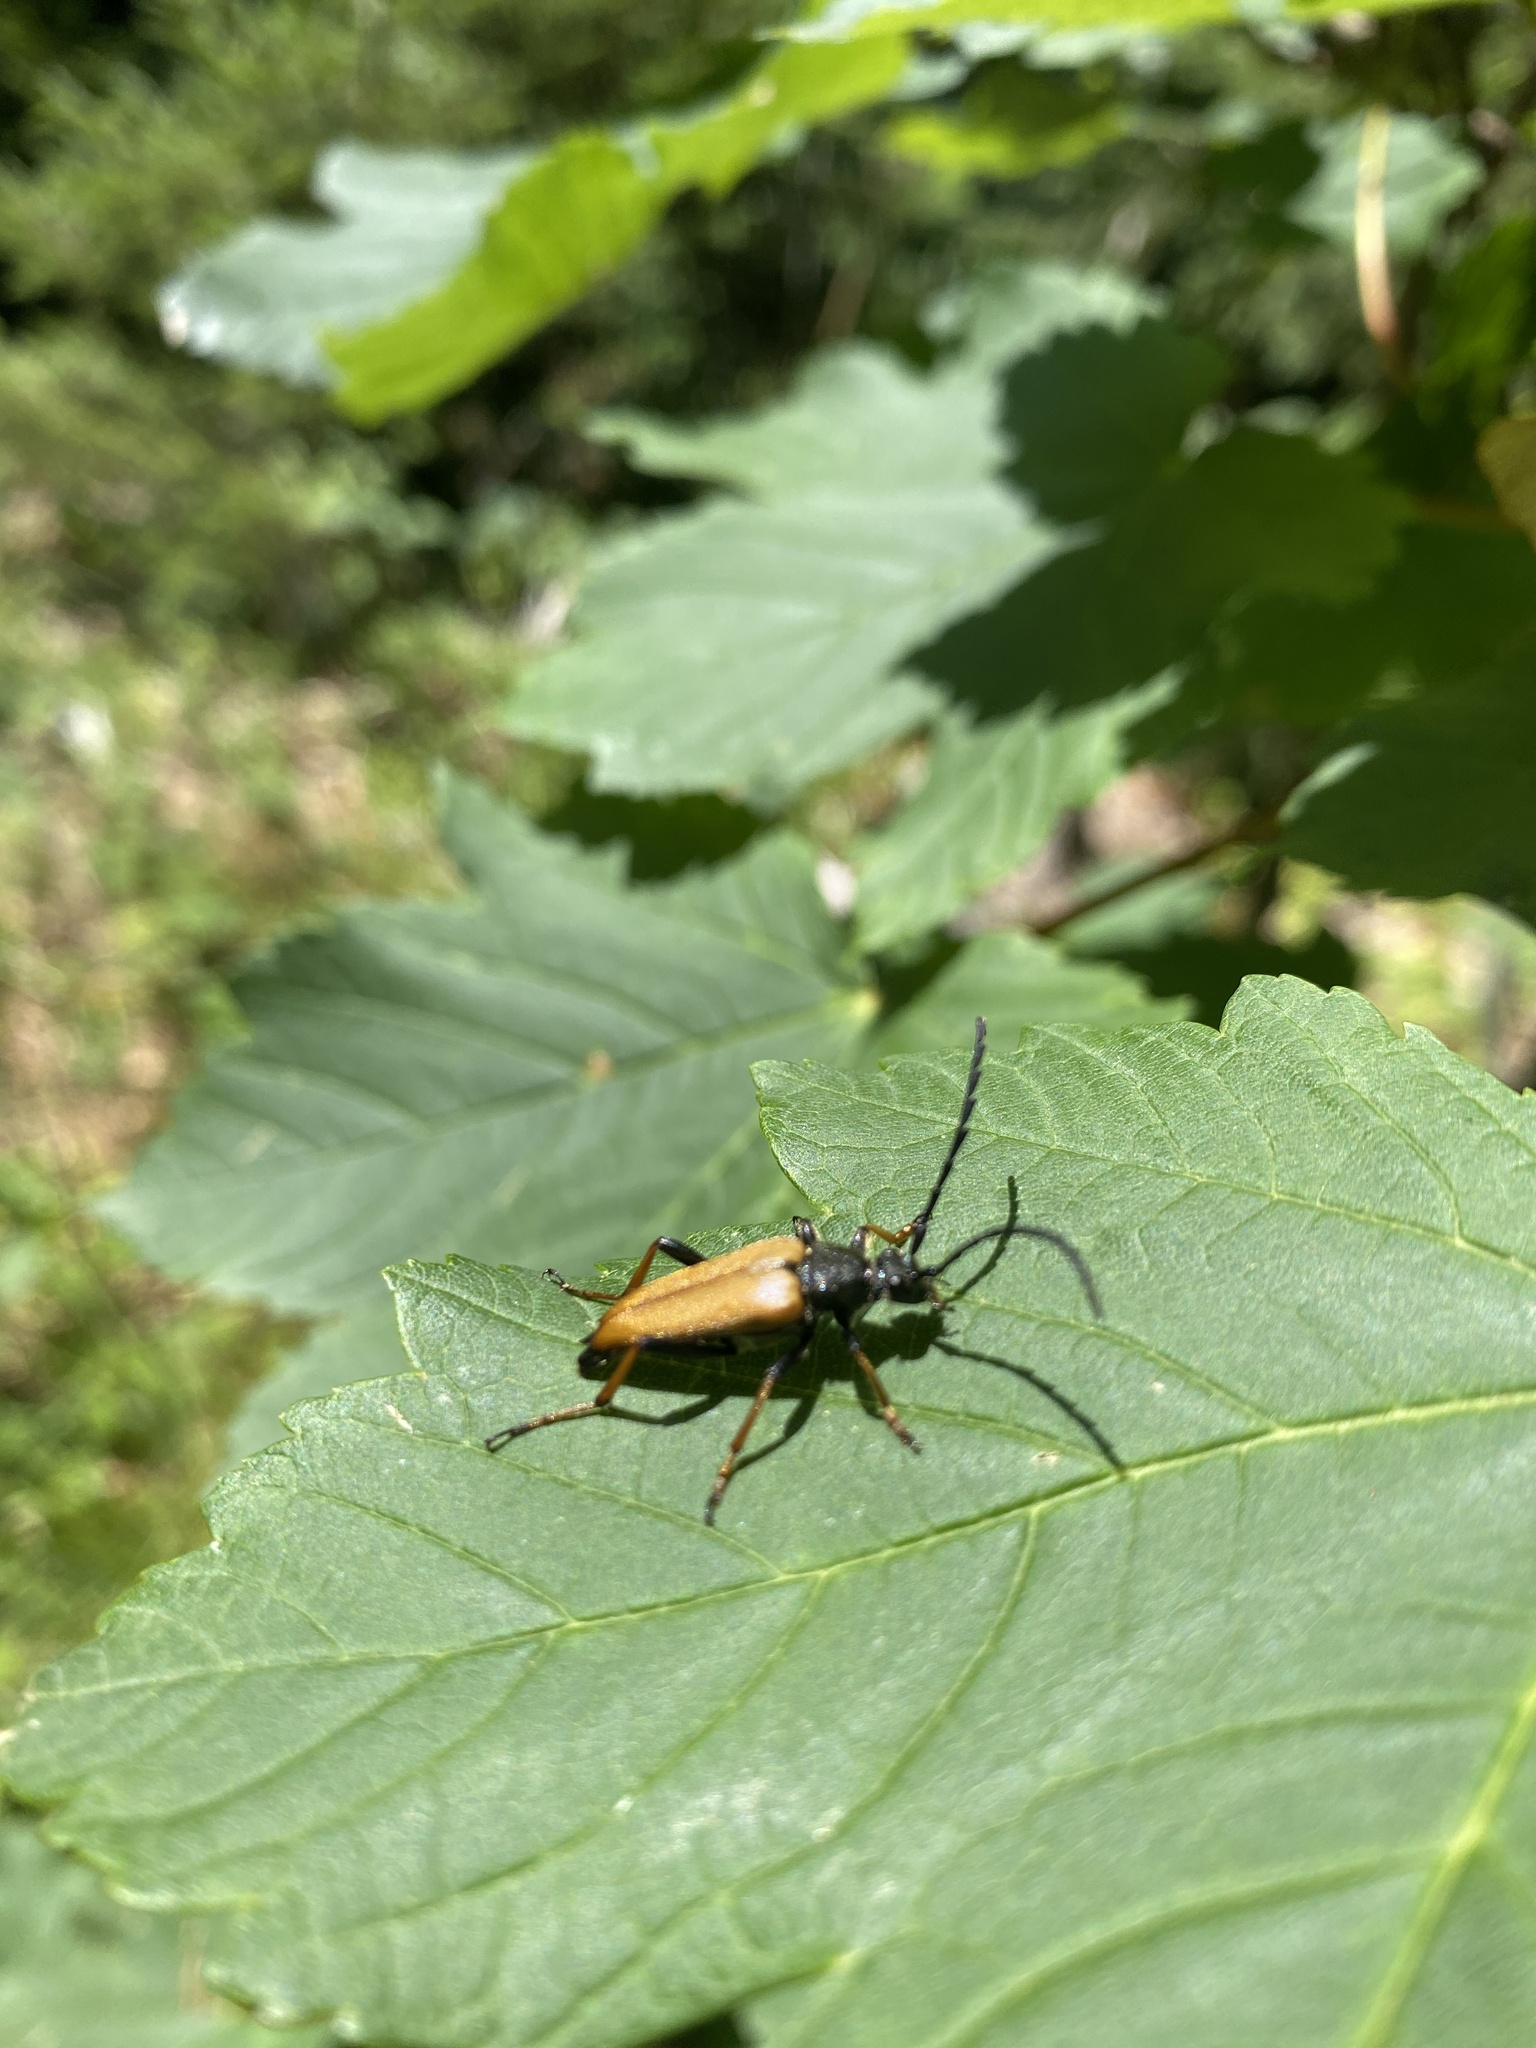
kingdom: Animalia
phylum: Arthropoda
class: Insecta
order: Coleoptera
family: Cerambycidae
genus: Stictoleptura
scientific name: Stictoleptura rubra
